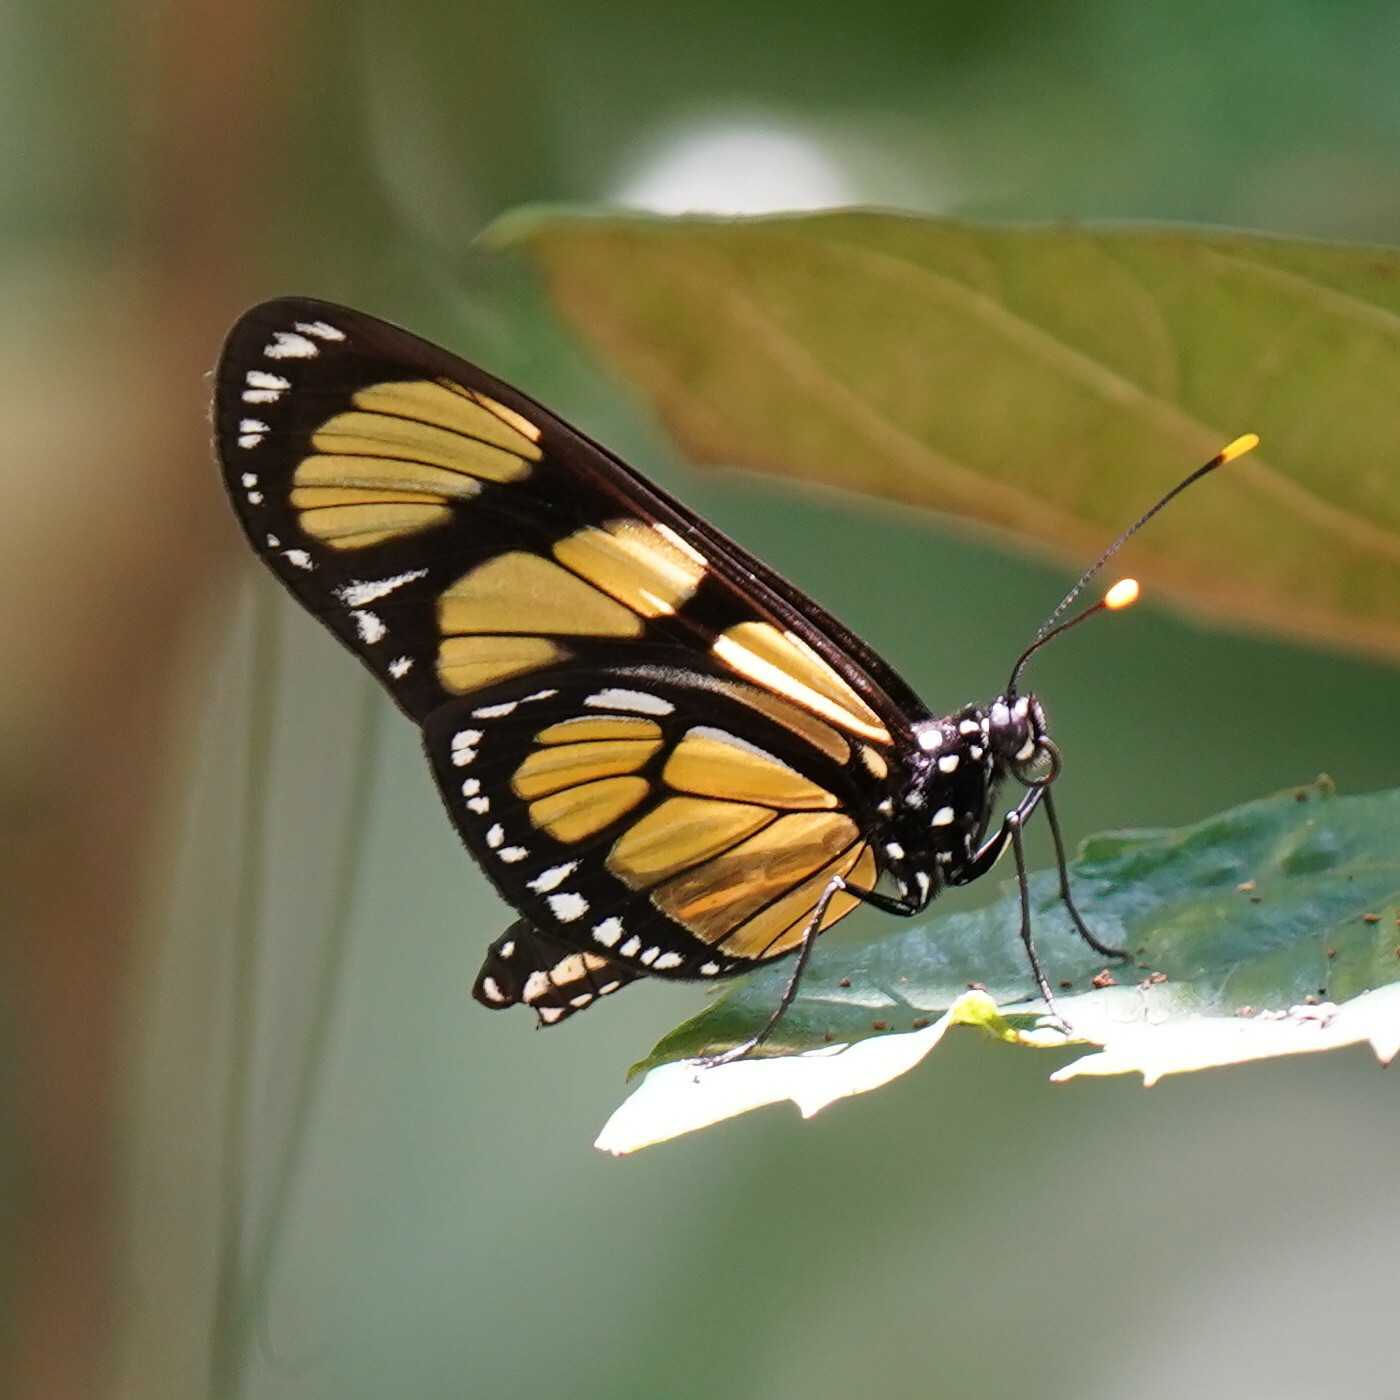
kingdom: Animalia
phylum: Arthropoda
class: Insecta
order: Lepidoptera
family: Nymphalidae
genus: Methona
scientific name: Methona themisto
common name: Themisto amberwing
